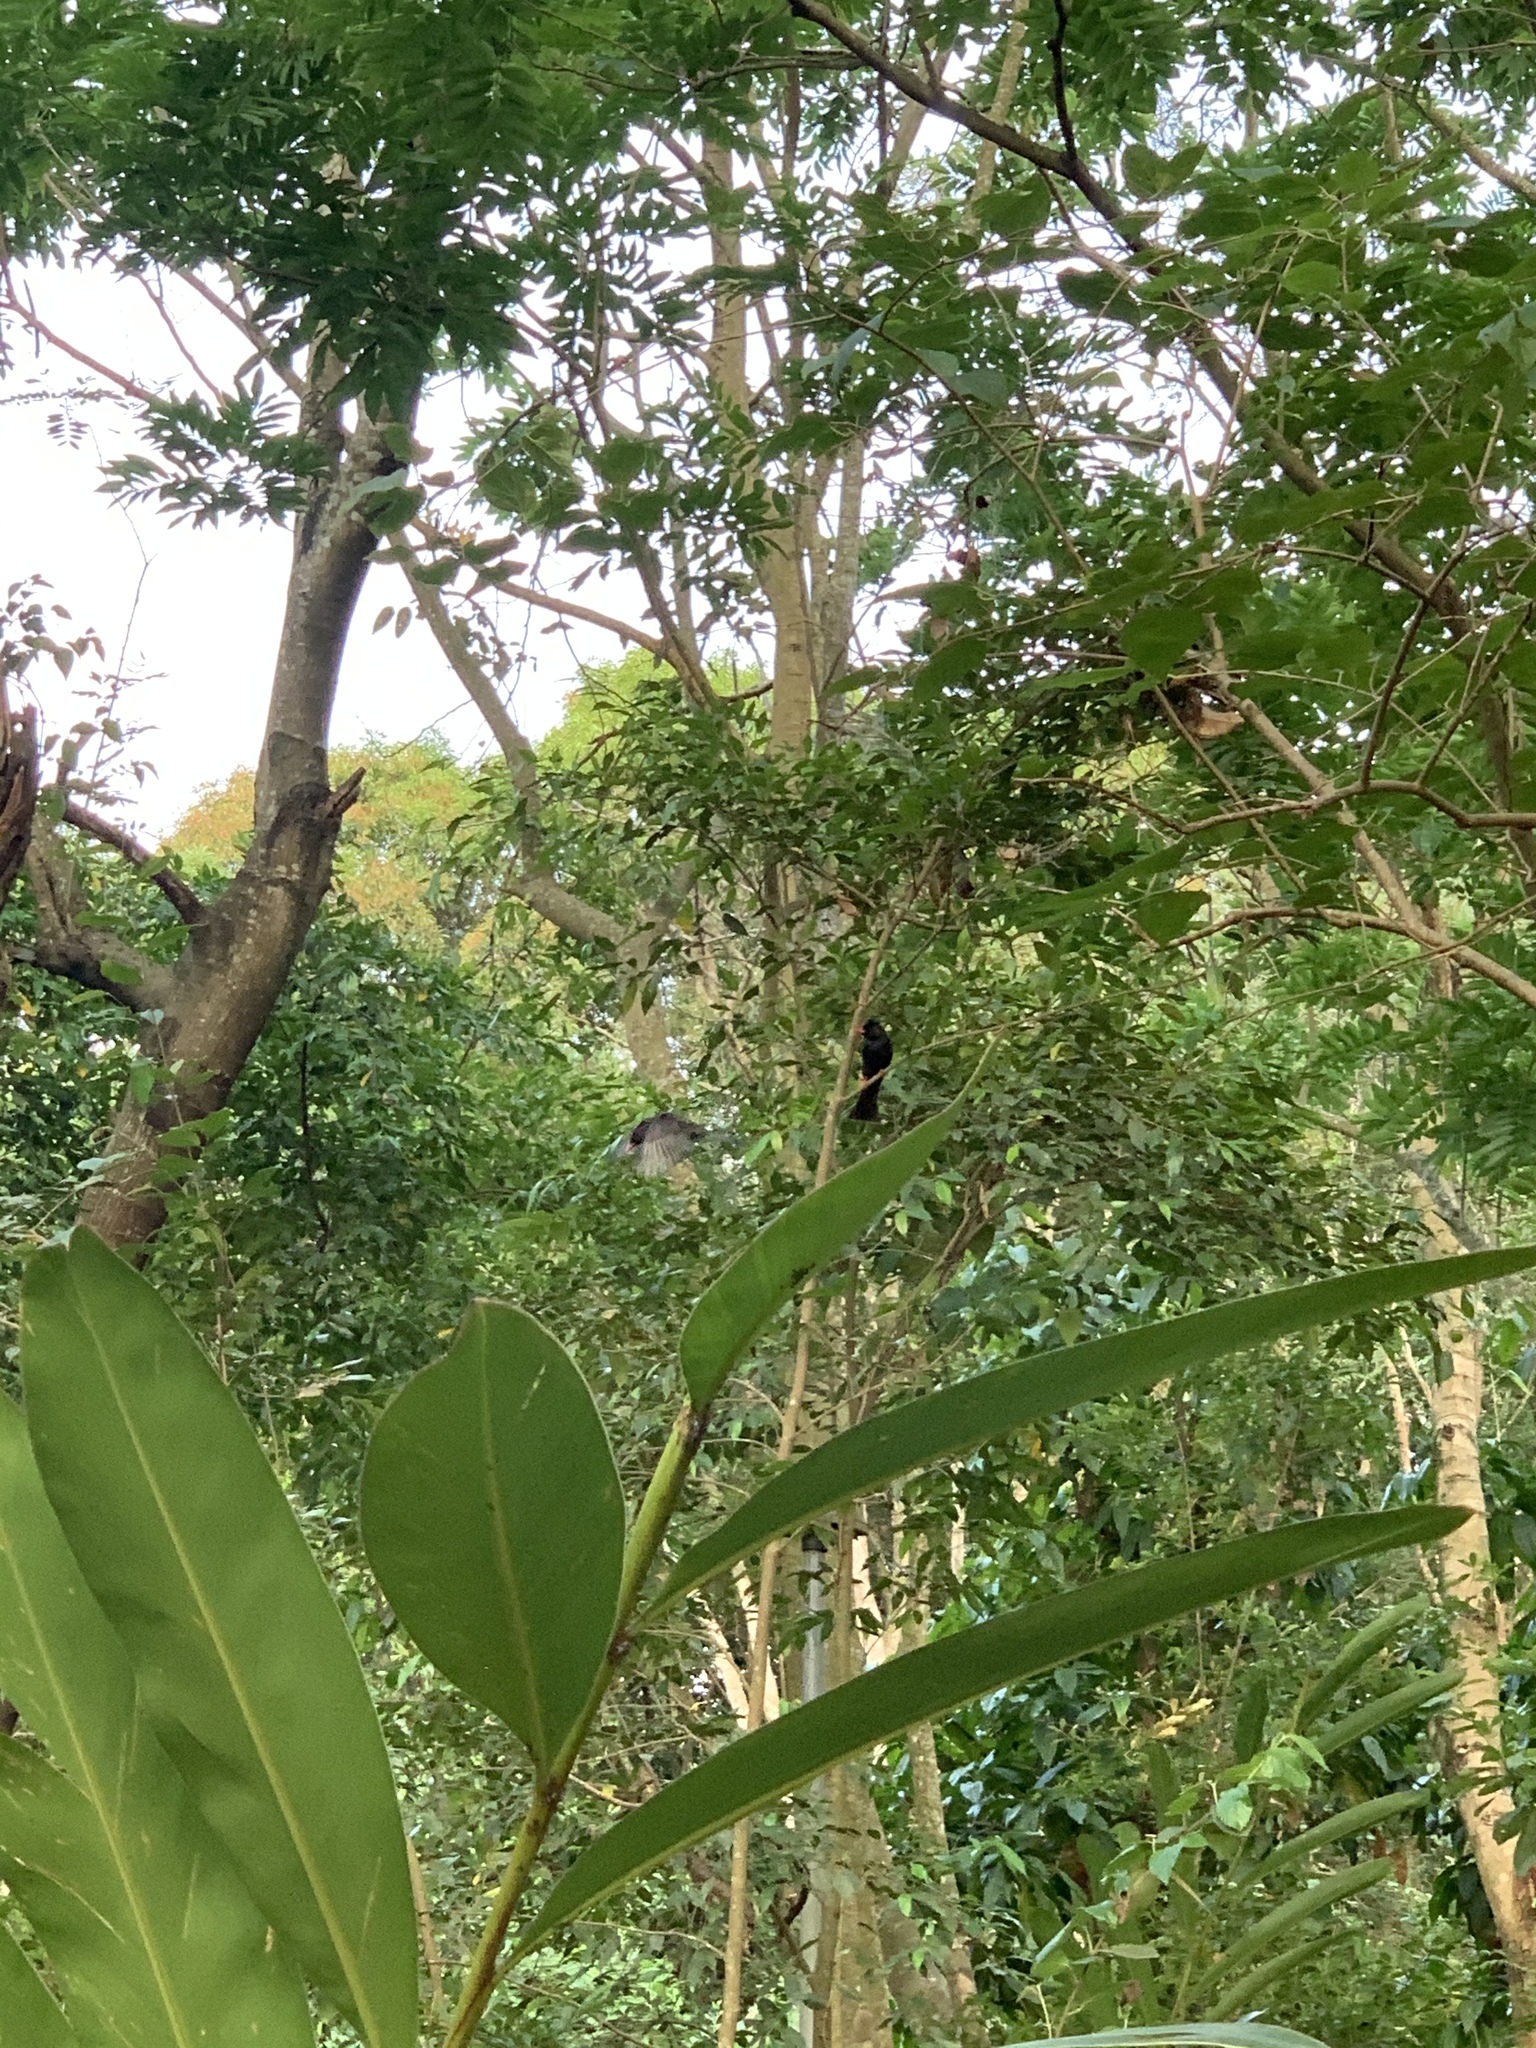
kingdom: Animalia
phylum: Chordata
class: Aves
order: Passeriformes
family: Pycnonotidae
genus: Hypsipetes
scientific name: Hypsipetes leucocephalus
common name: Black bulbul
